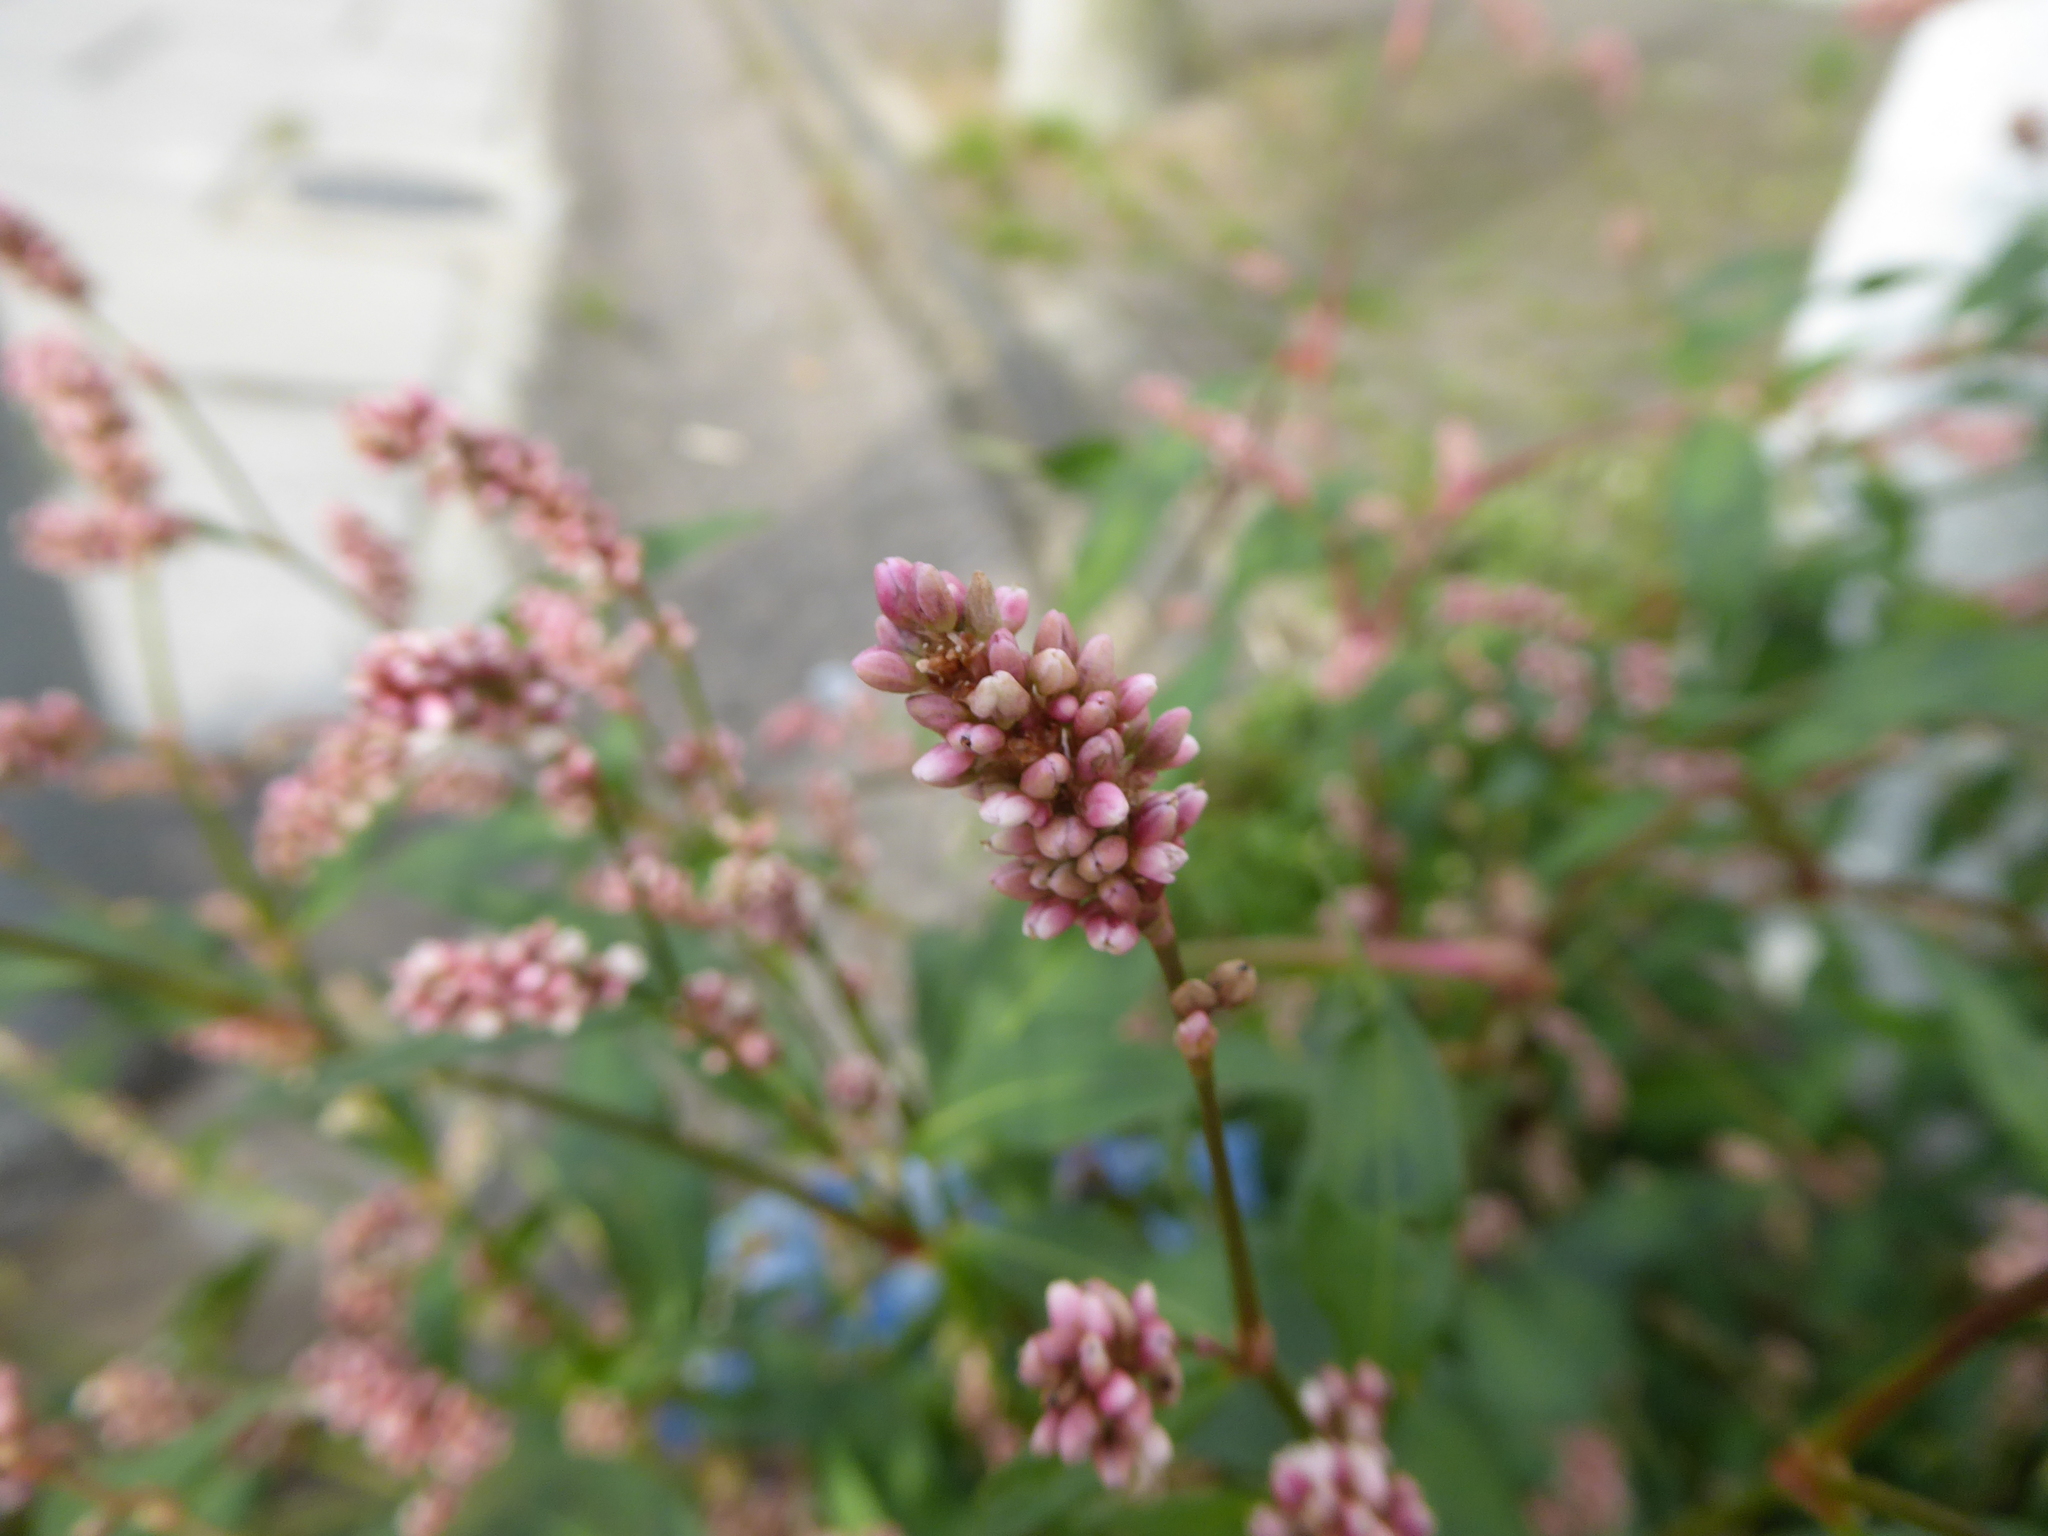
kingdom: Plantae
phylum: Tracheophyta
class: Magnoliopsida
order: Caryophyllales
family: Polygonaceae
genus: Persicaria
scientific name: Persicaria maculosa
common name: Redshank
